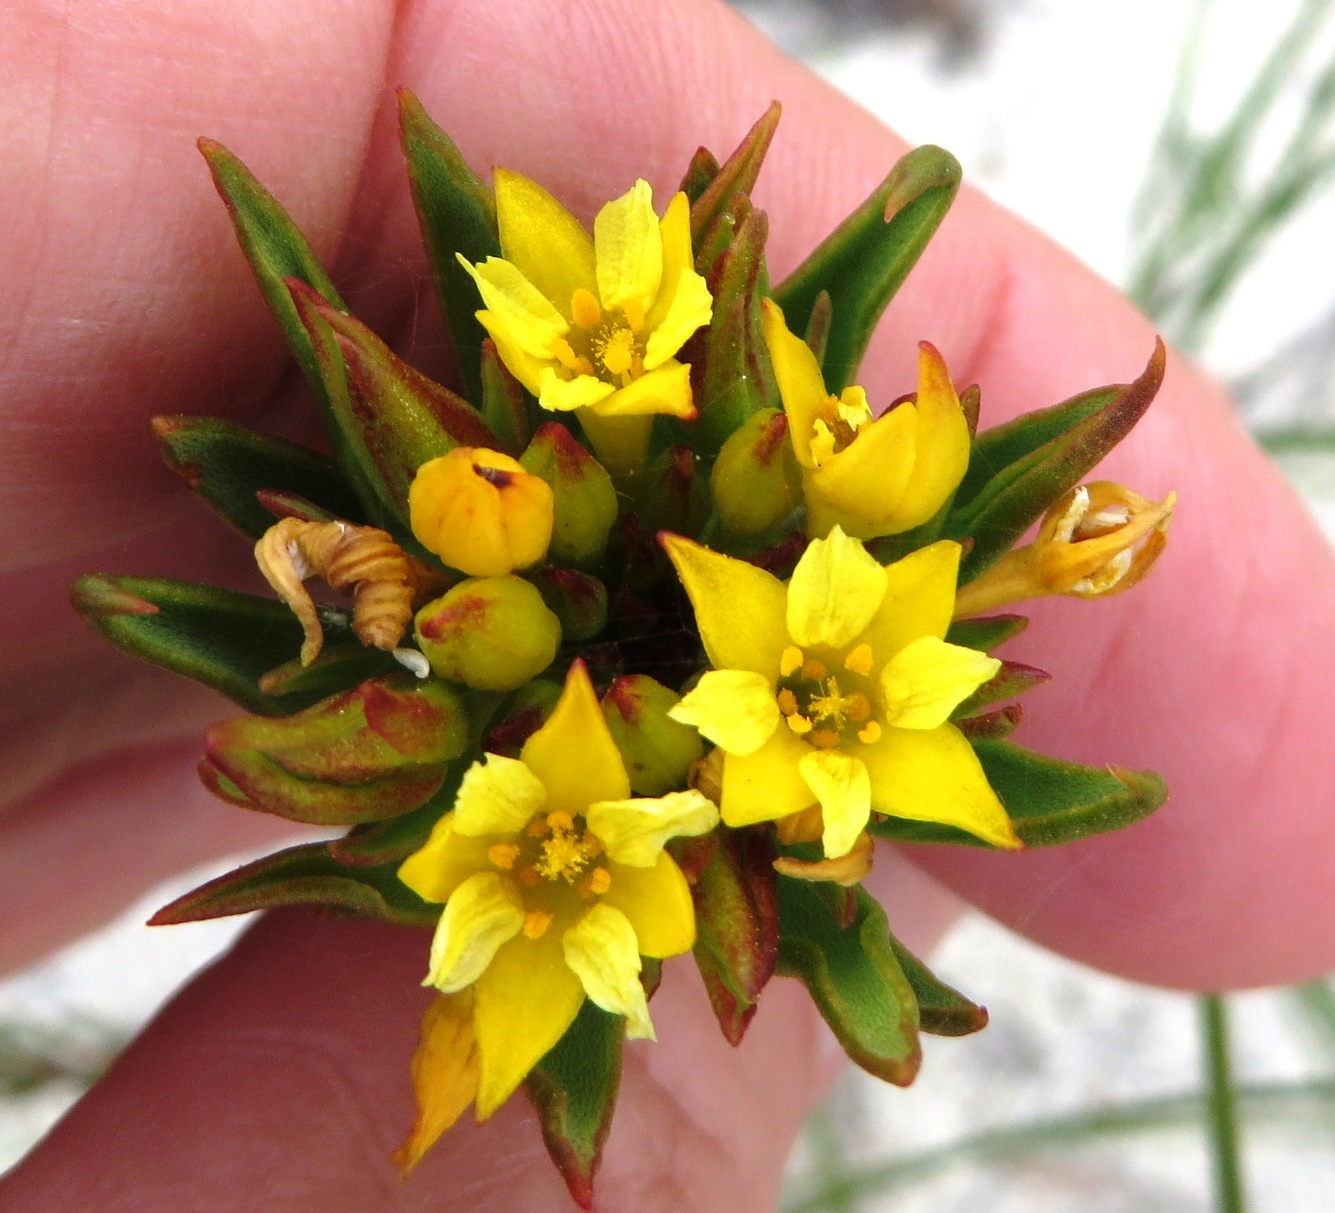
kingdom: Plantae
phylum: Tracheophyta
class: Magnoliopsida
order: Malvales
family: Thymelaeaceae
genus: Gnidia
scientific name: Gnidia juniperifolia
